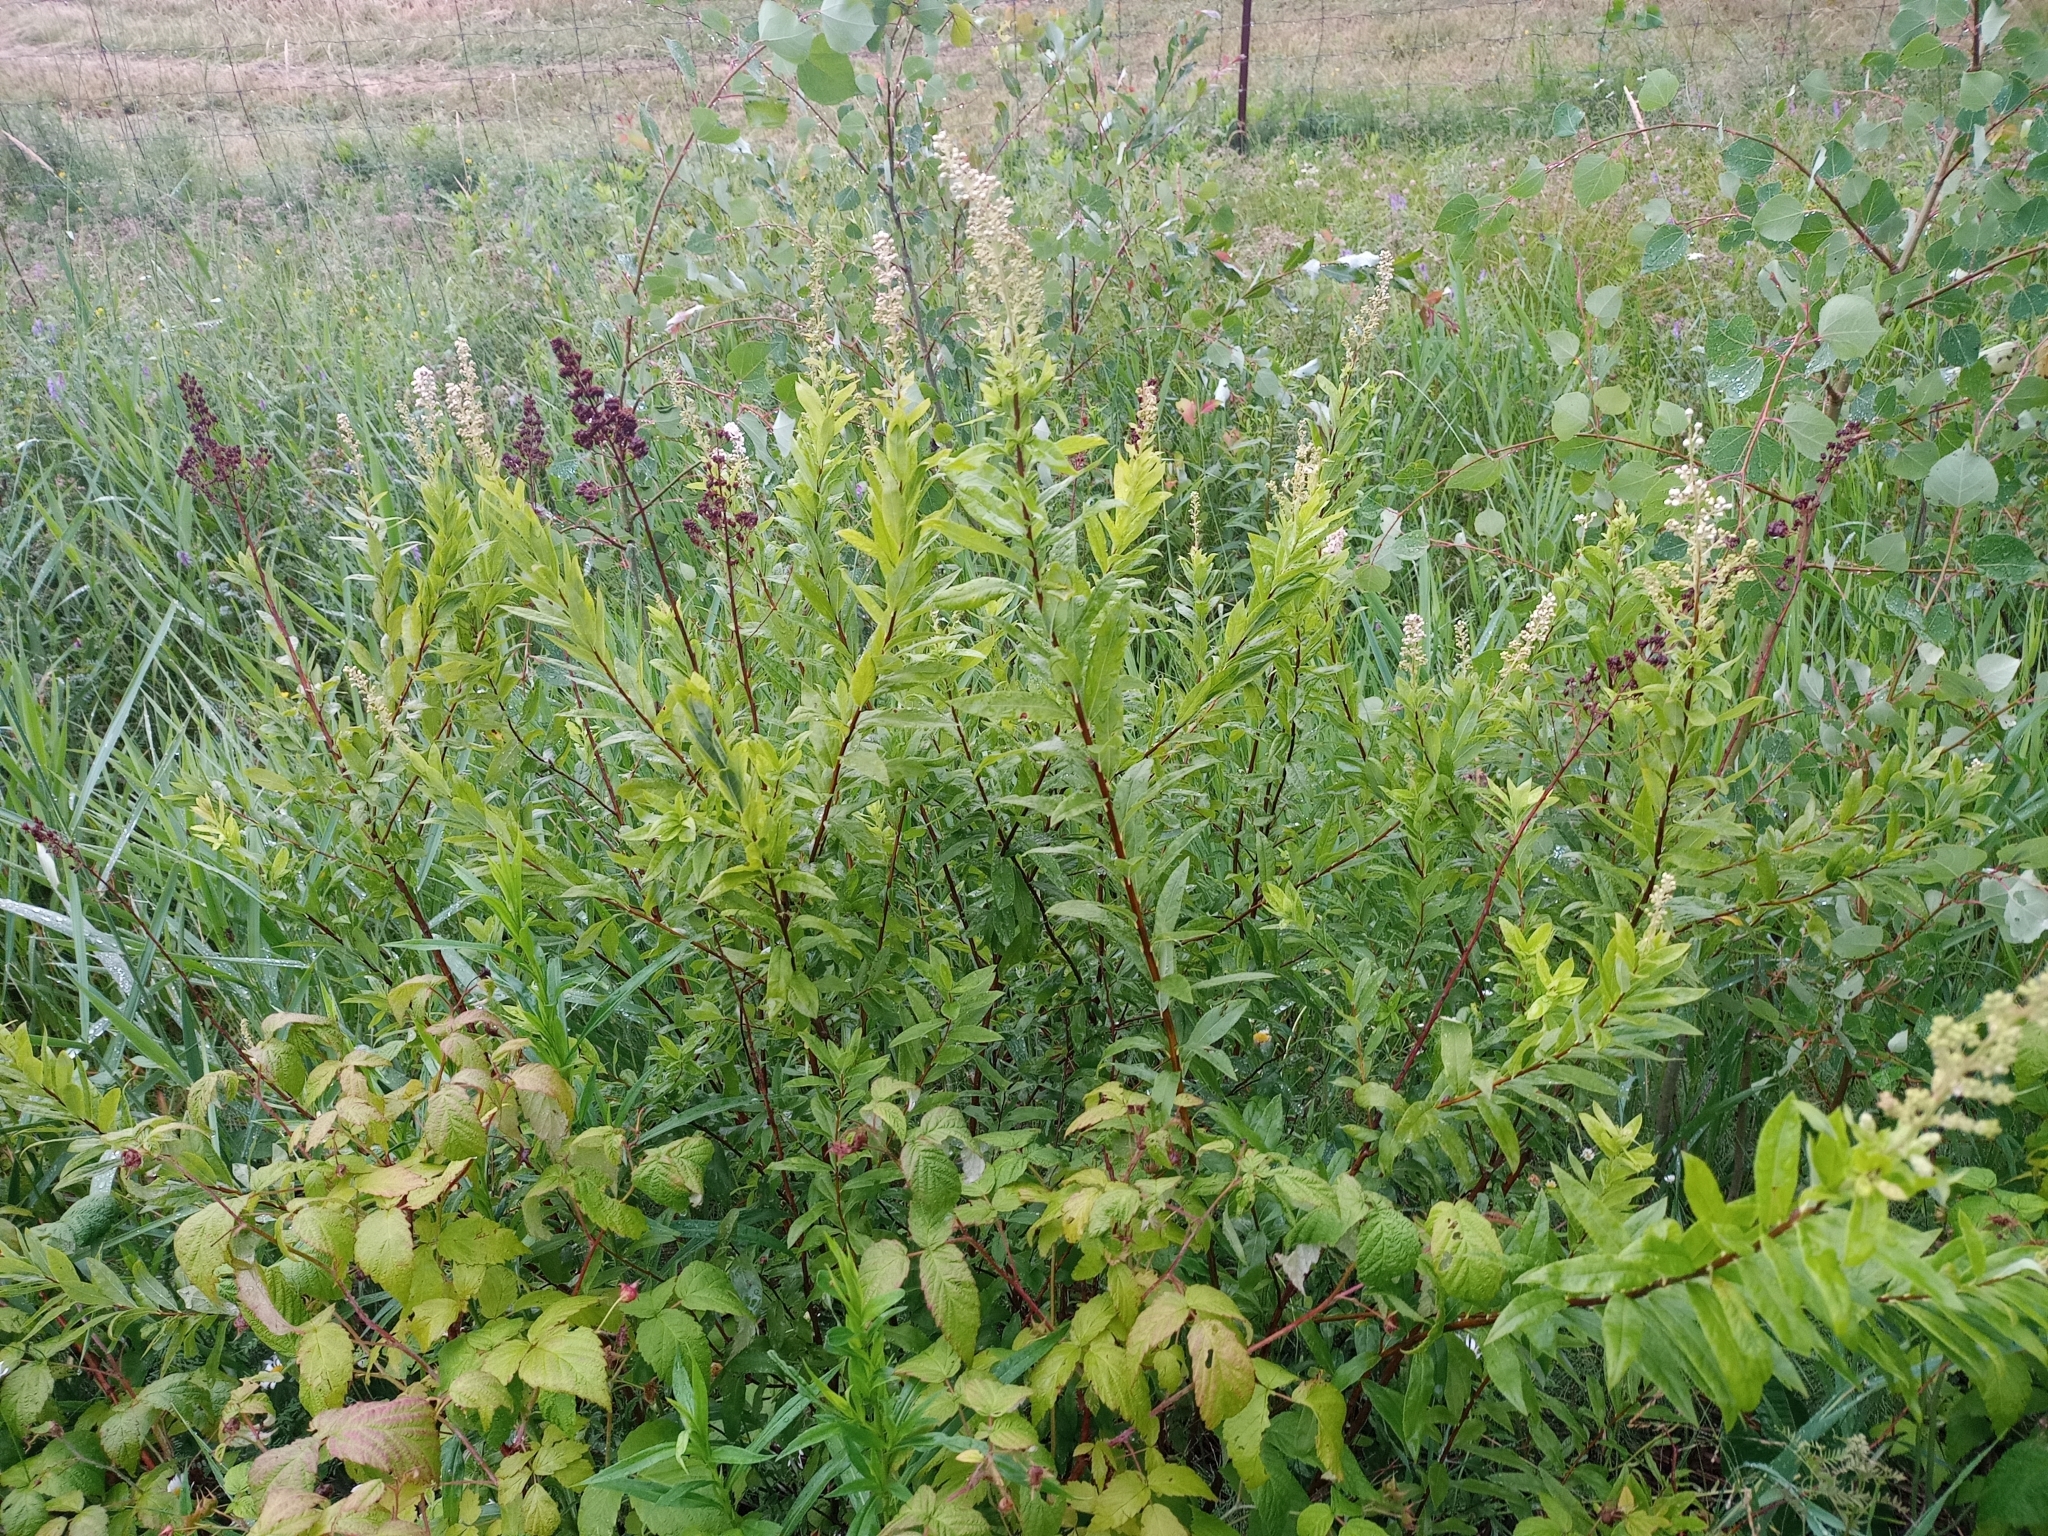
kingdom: Plantae
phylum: Tracheophyta
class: Magnoliopsida
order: Rosales
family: Rosaceae
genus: Spiraea
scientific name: Spiraea alba
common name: Pale bridewort
